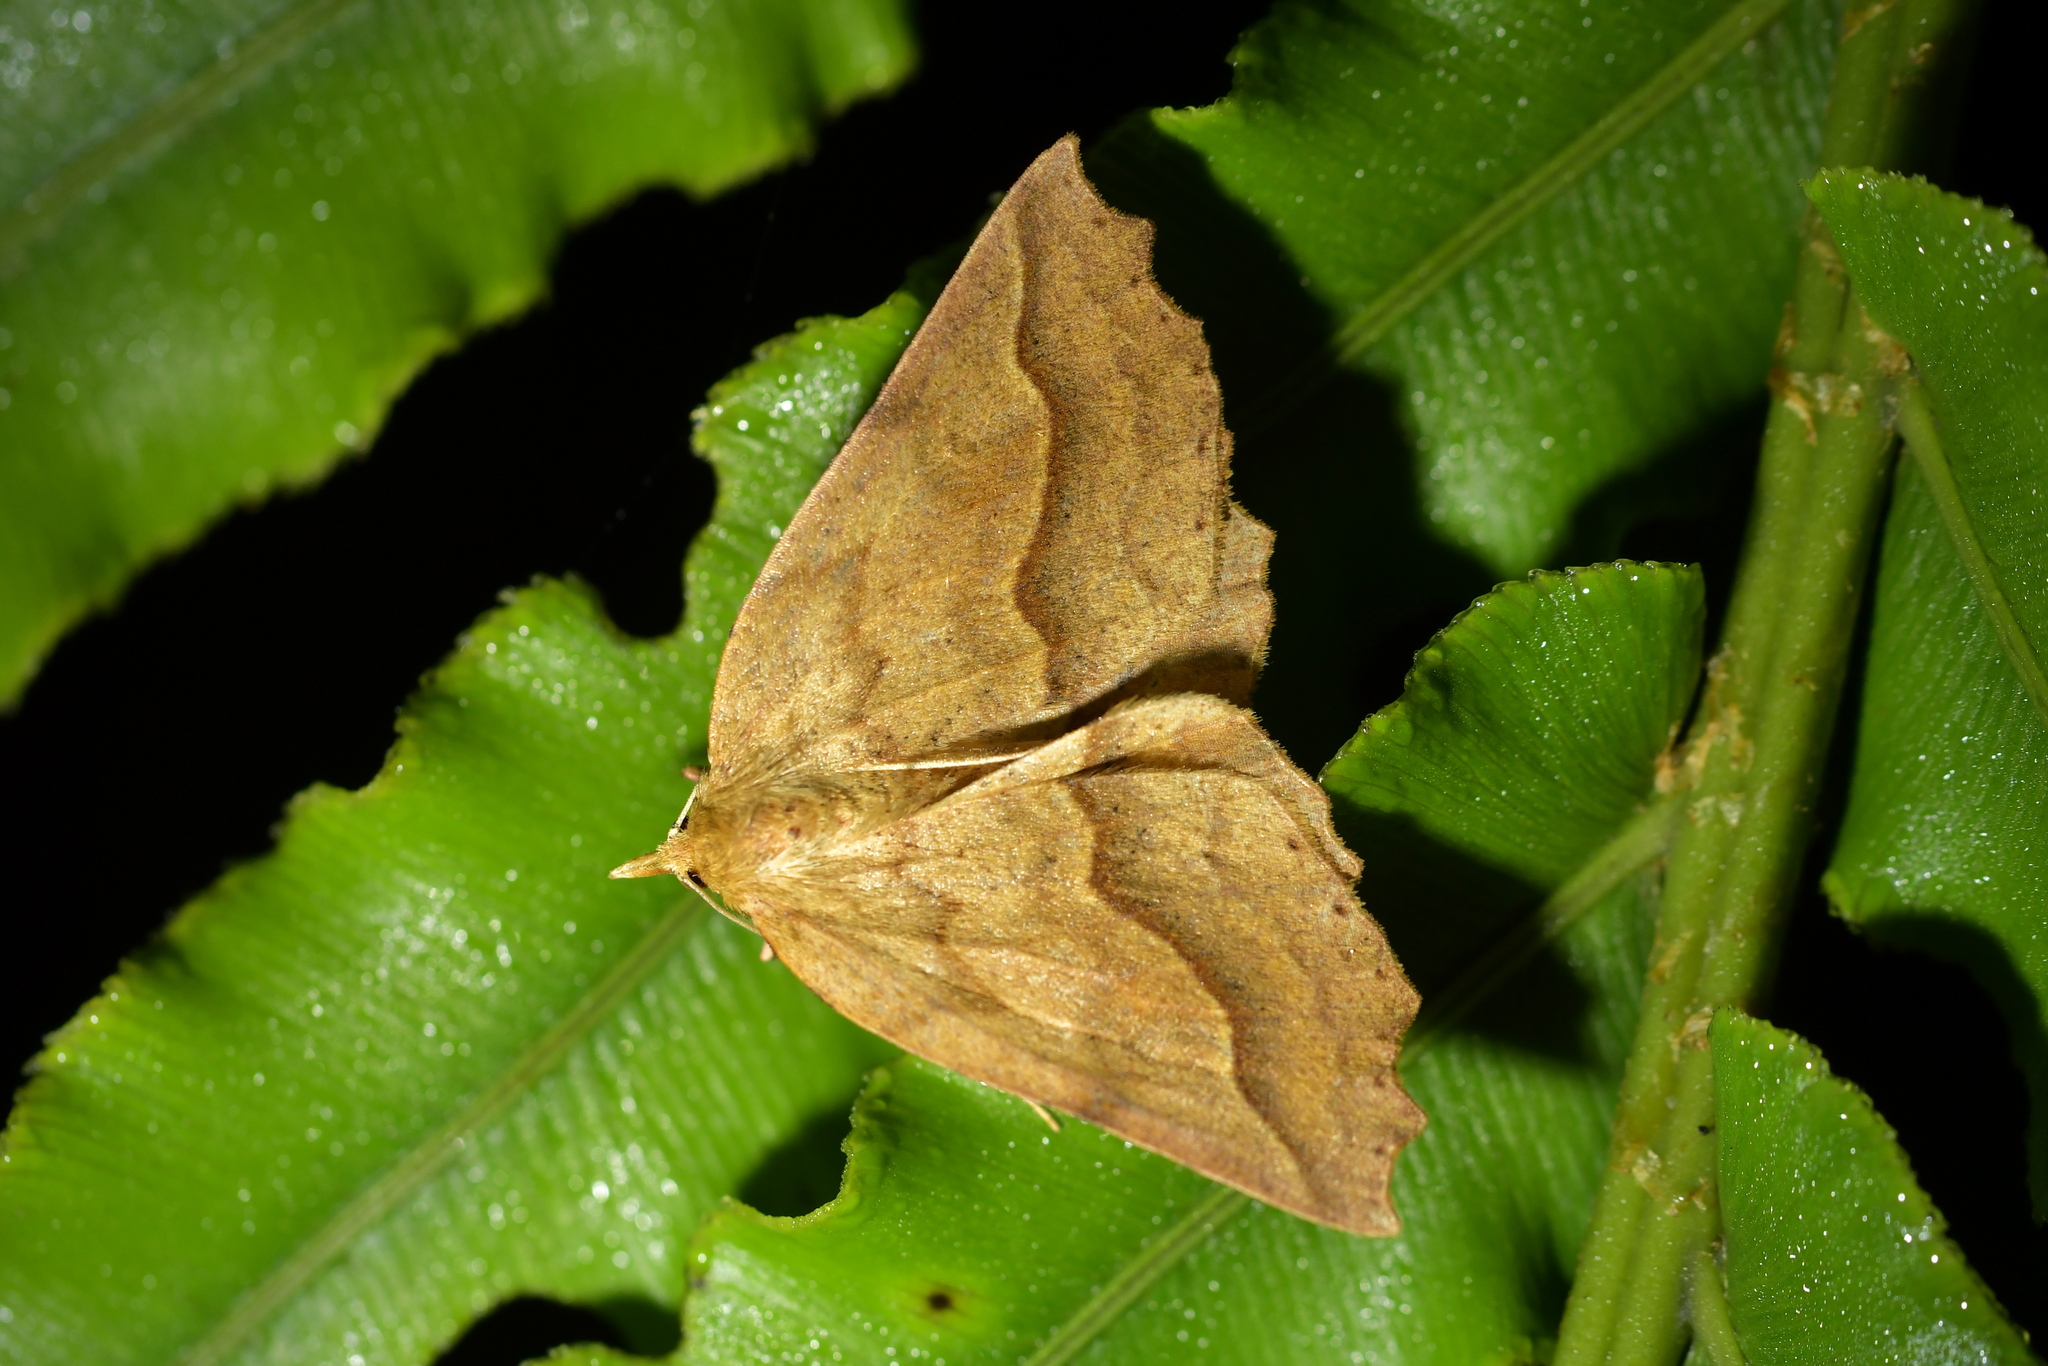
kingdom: Animalia
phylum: Arthropoda
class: Insecta
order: Lepidoptera
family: Geometridae
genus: Ischalis
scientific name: Ischalis variabilis
